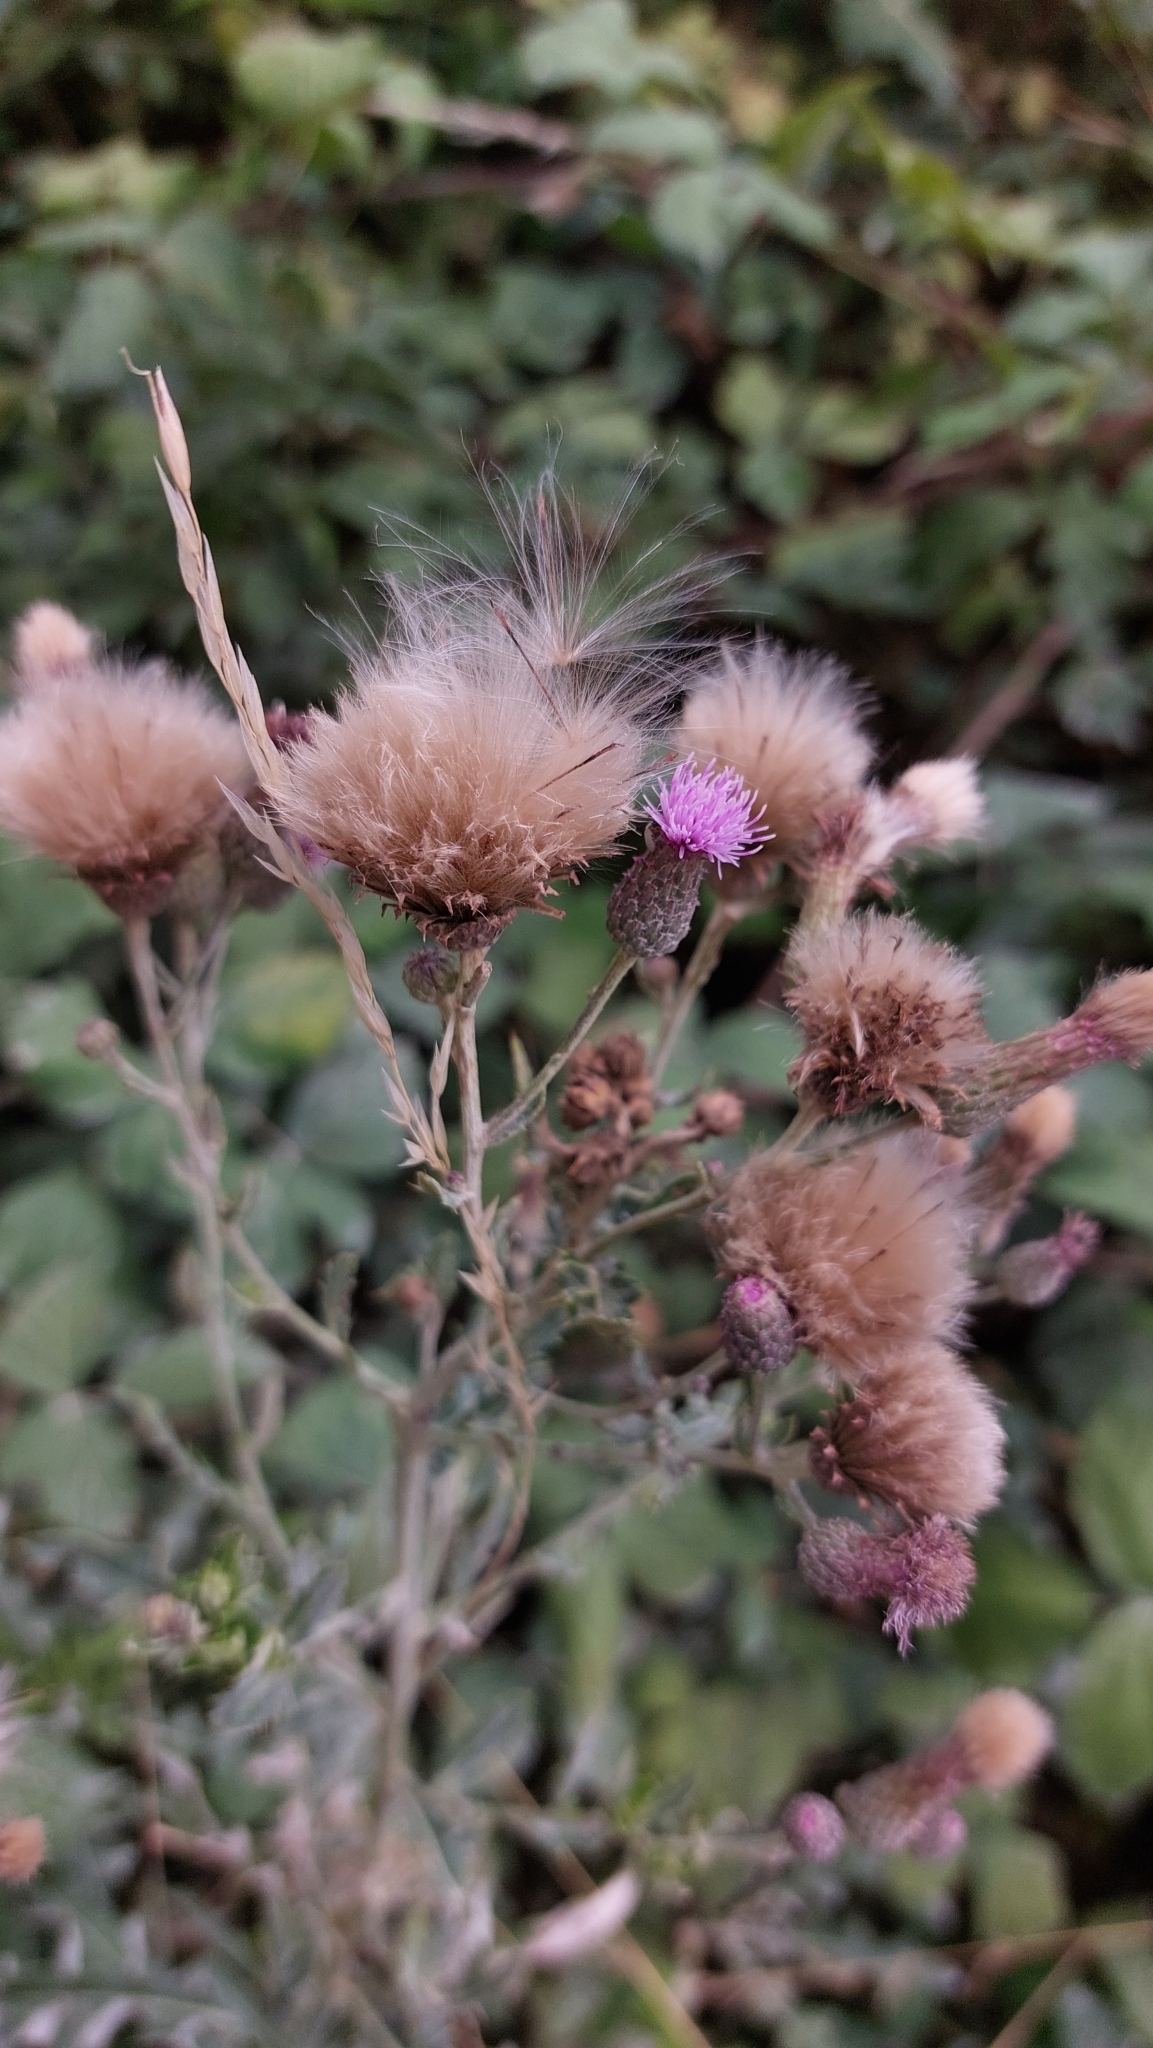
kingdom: Plantae
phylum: Tracheophyta
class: Magnoliopsida
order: Asterales
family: Asteraceae
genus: Cirsium
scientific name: Cirsium arvense
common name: Creeping thistle
